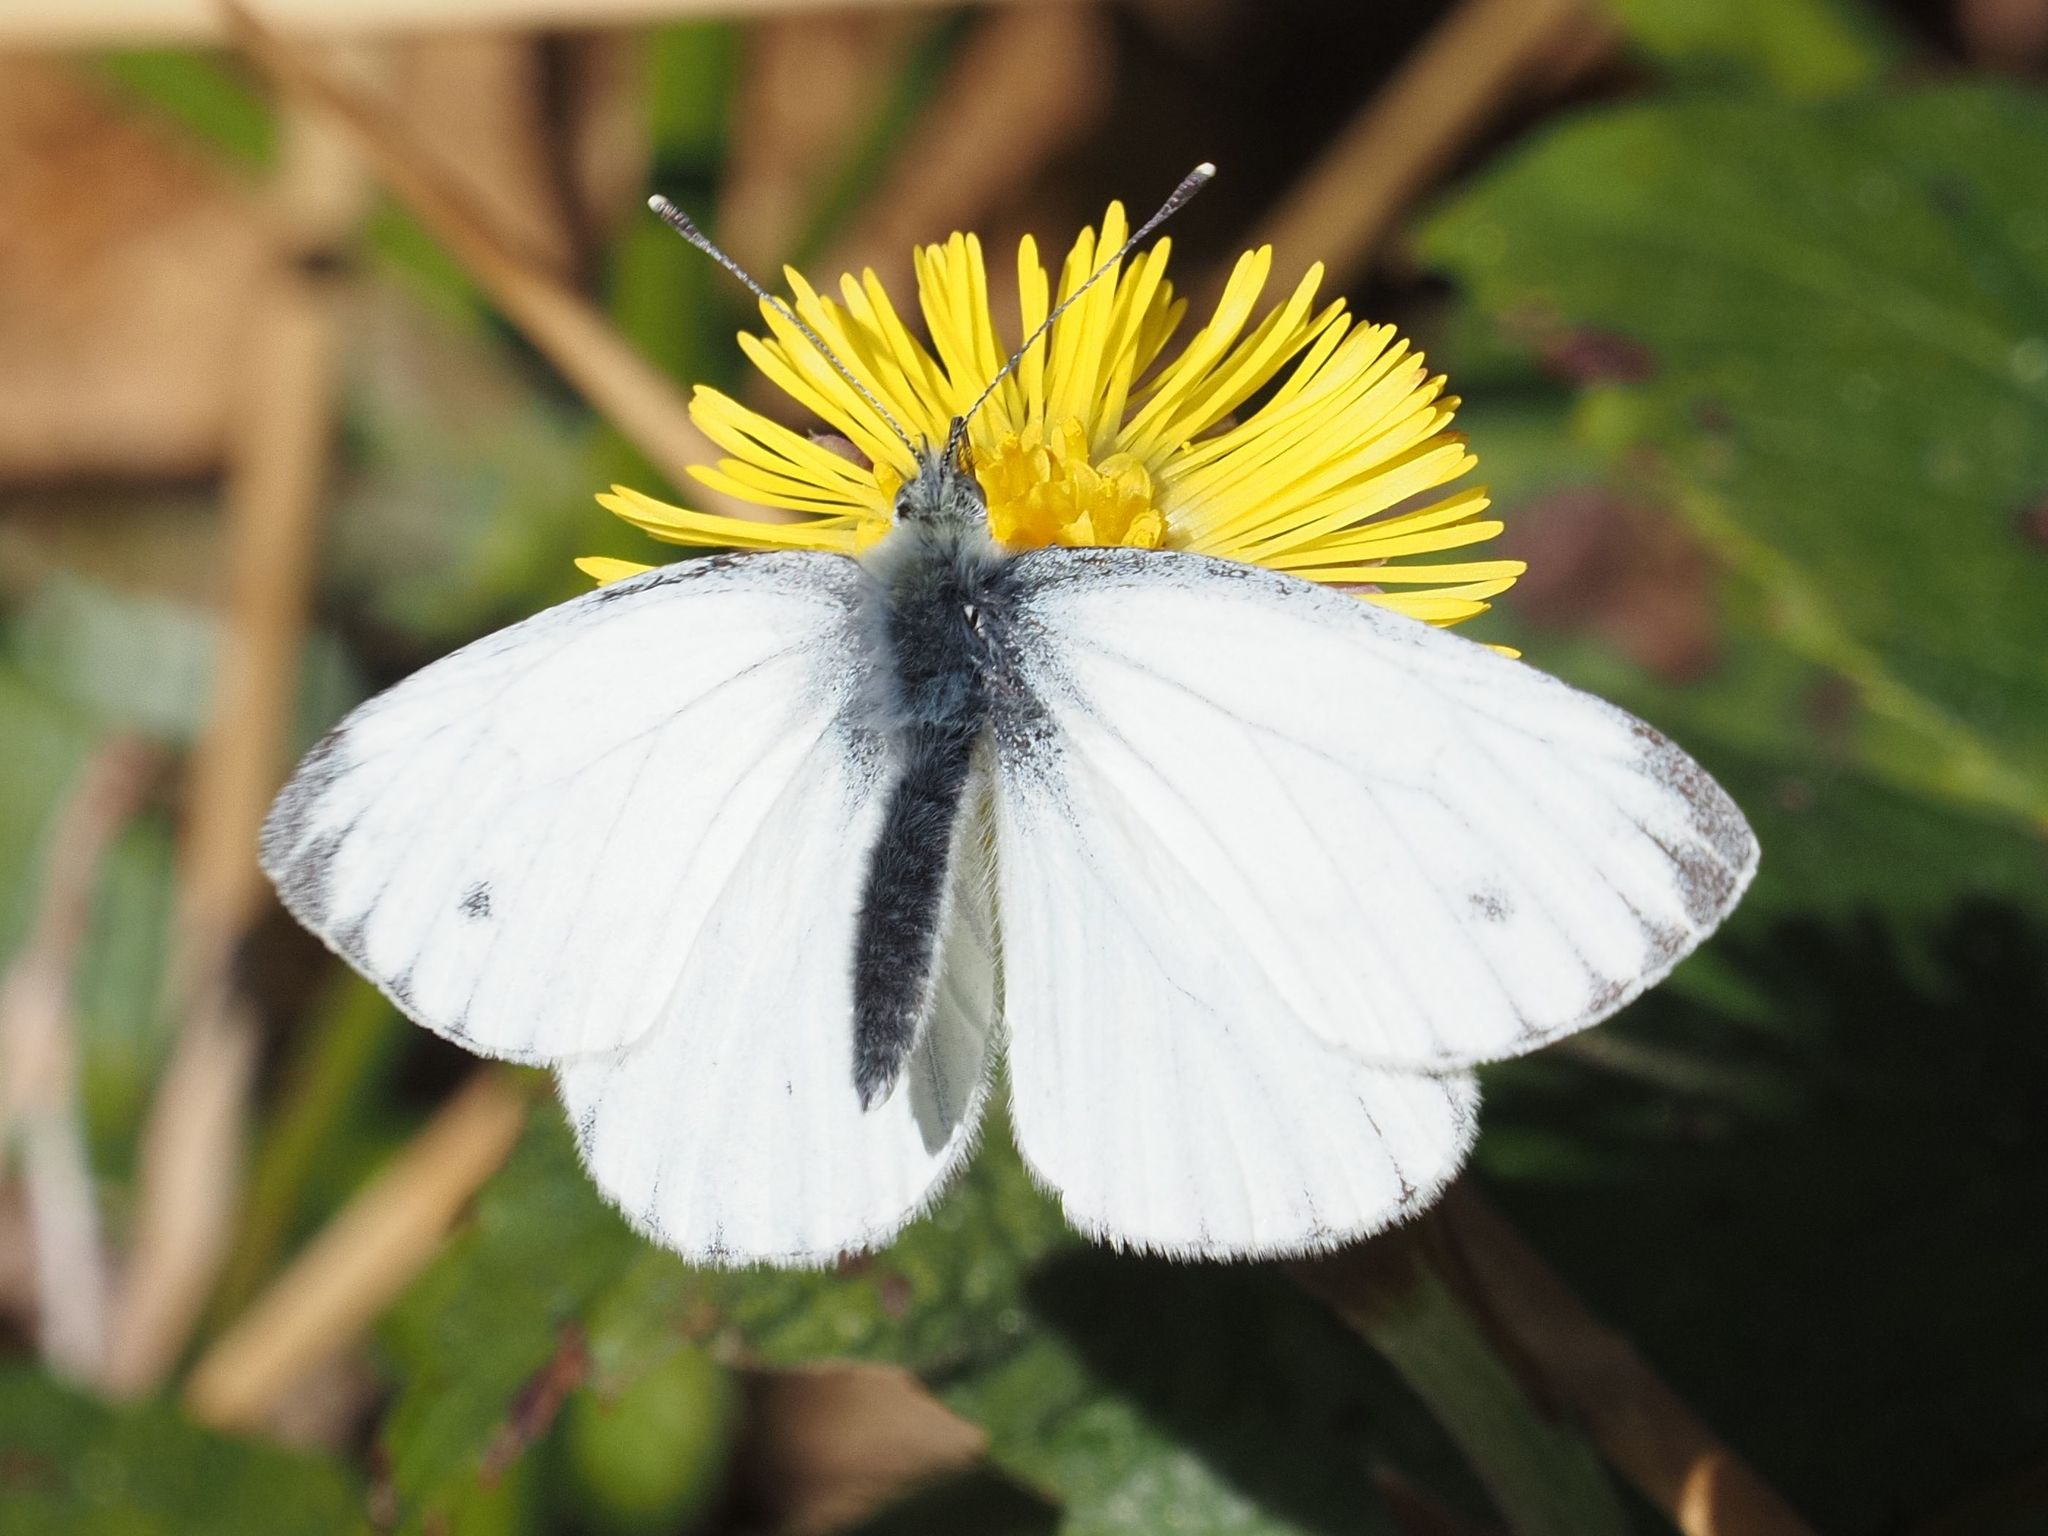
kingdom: Animalia
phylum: Arthropoda
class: Insecta
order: Lepidoptera
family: Pieridae
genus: Pieris
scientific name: Pieris napi
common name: Green-veined white
